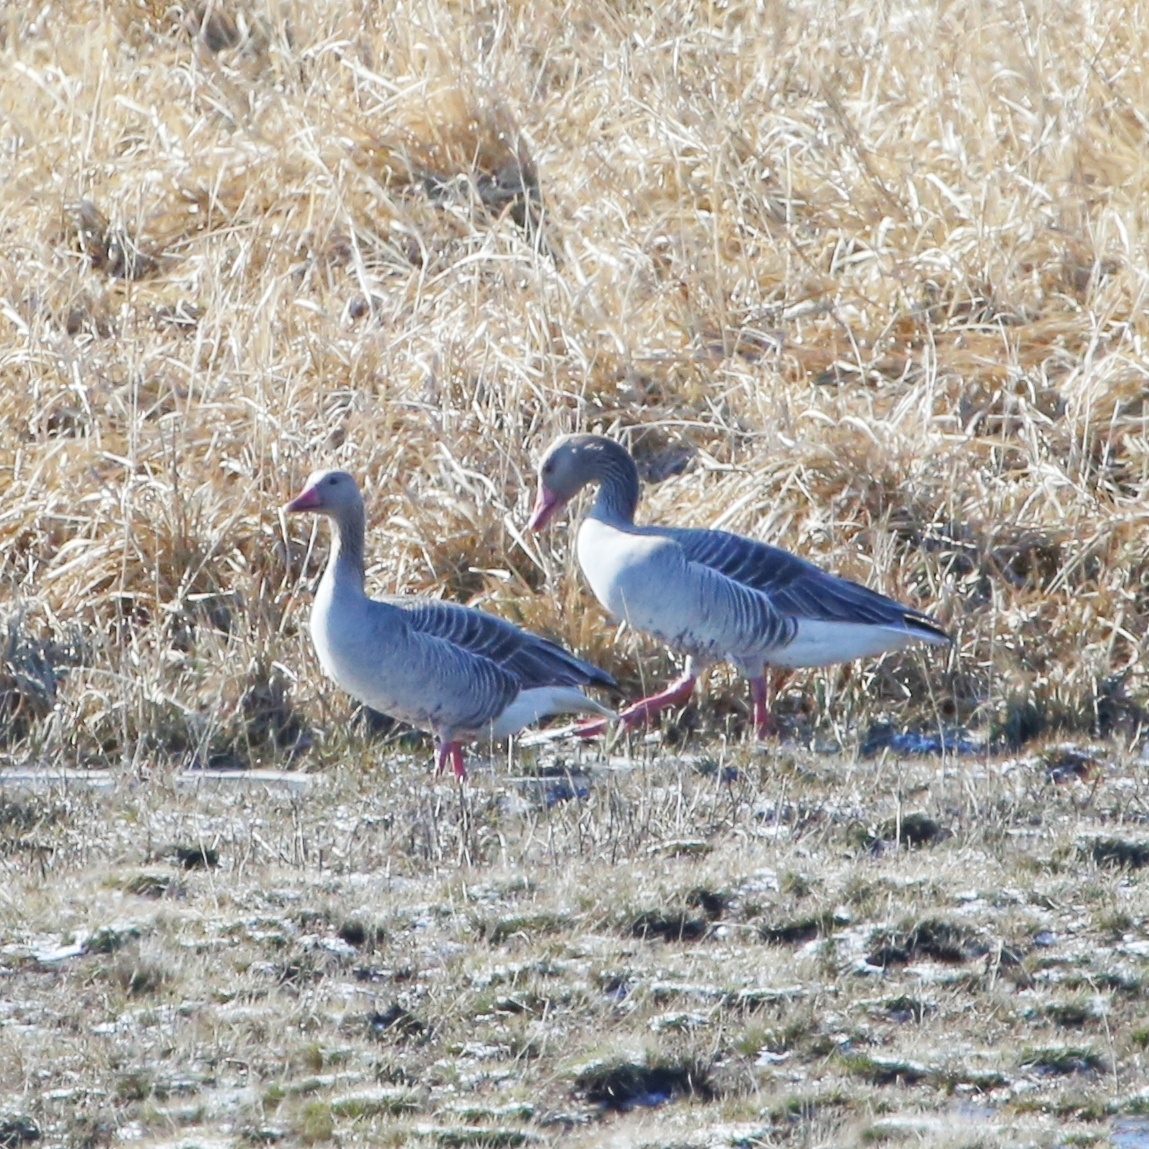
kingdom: Animalia
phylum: Chordata
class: Aves
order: Anseriformes
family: Anatidae
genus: Anser
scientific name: Anser anser
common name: Greylag goose
